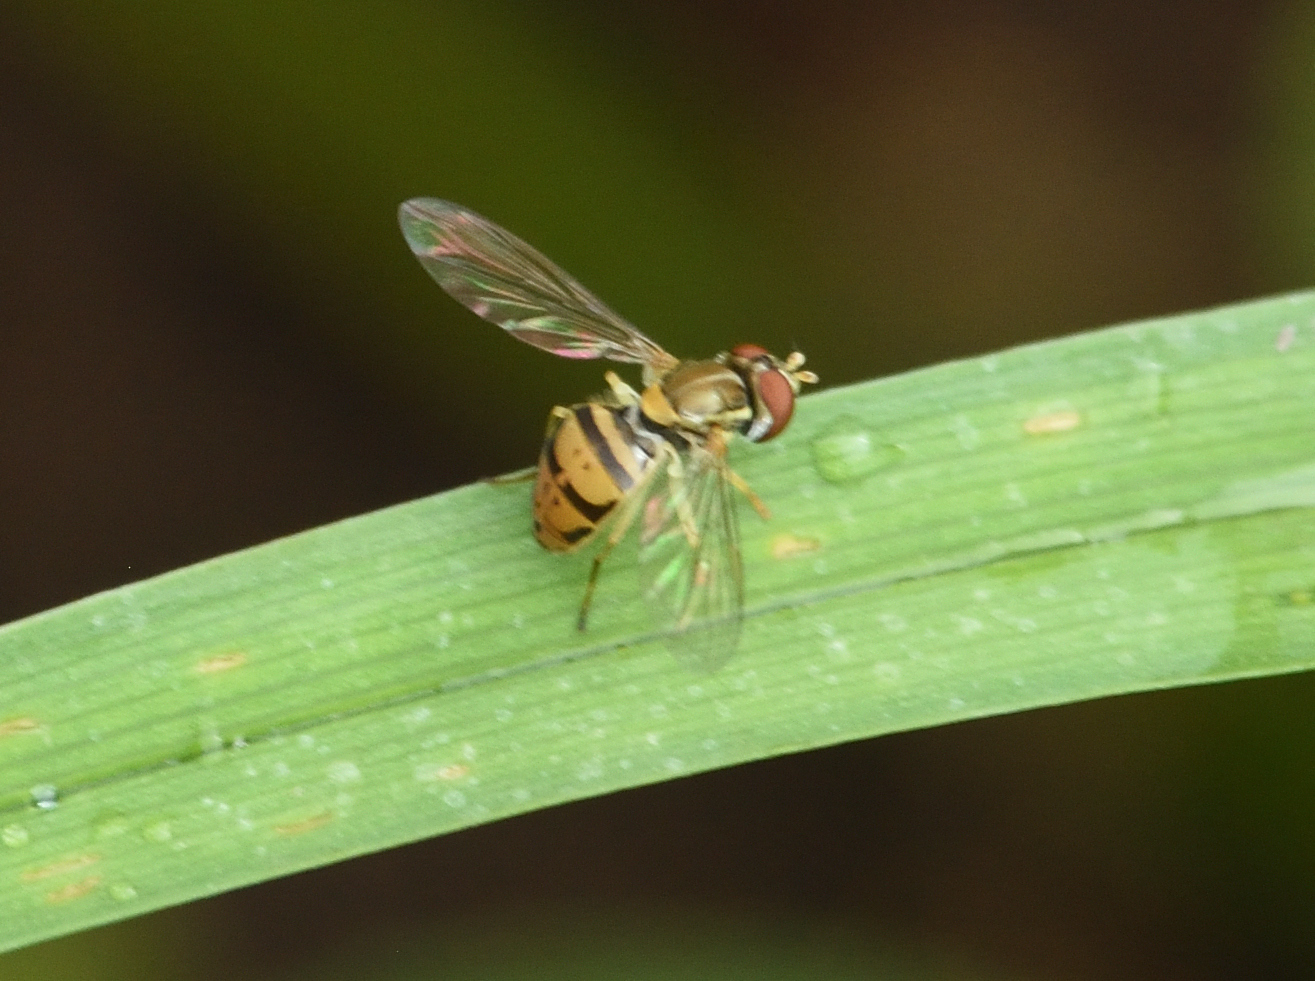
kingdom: Animalia
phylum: Arthropoda
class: Insecta
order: Diptera
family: Syrphidae
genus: Toxomerus
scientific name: Toxomerus marginatus
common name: Syrphid fly
